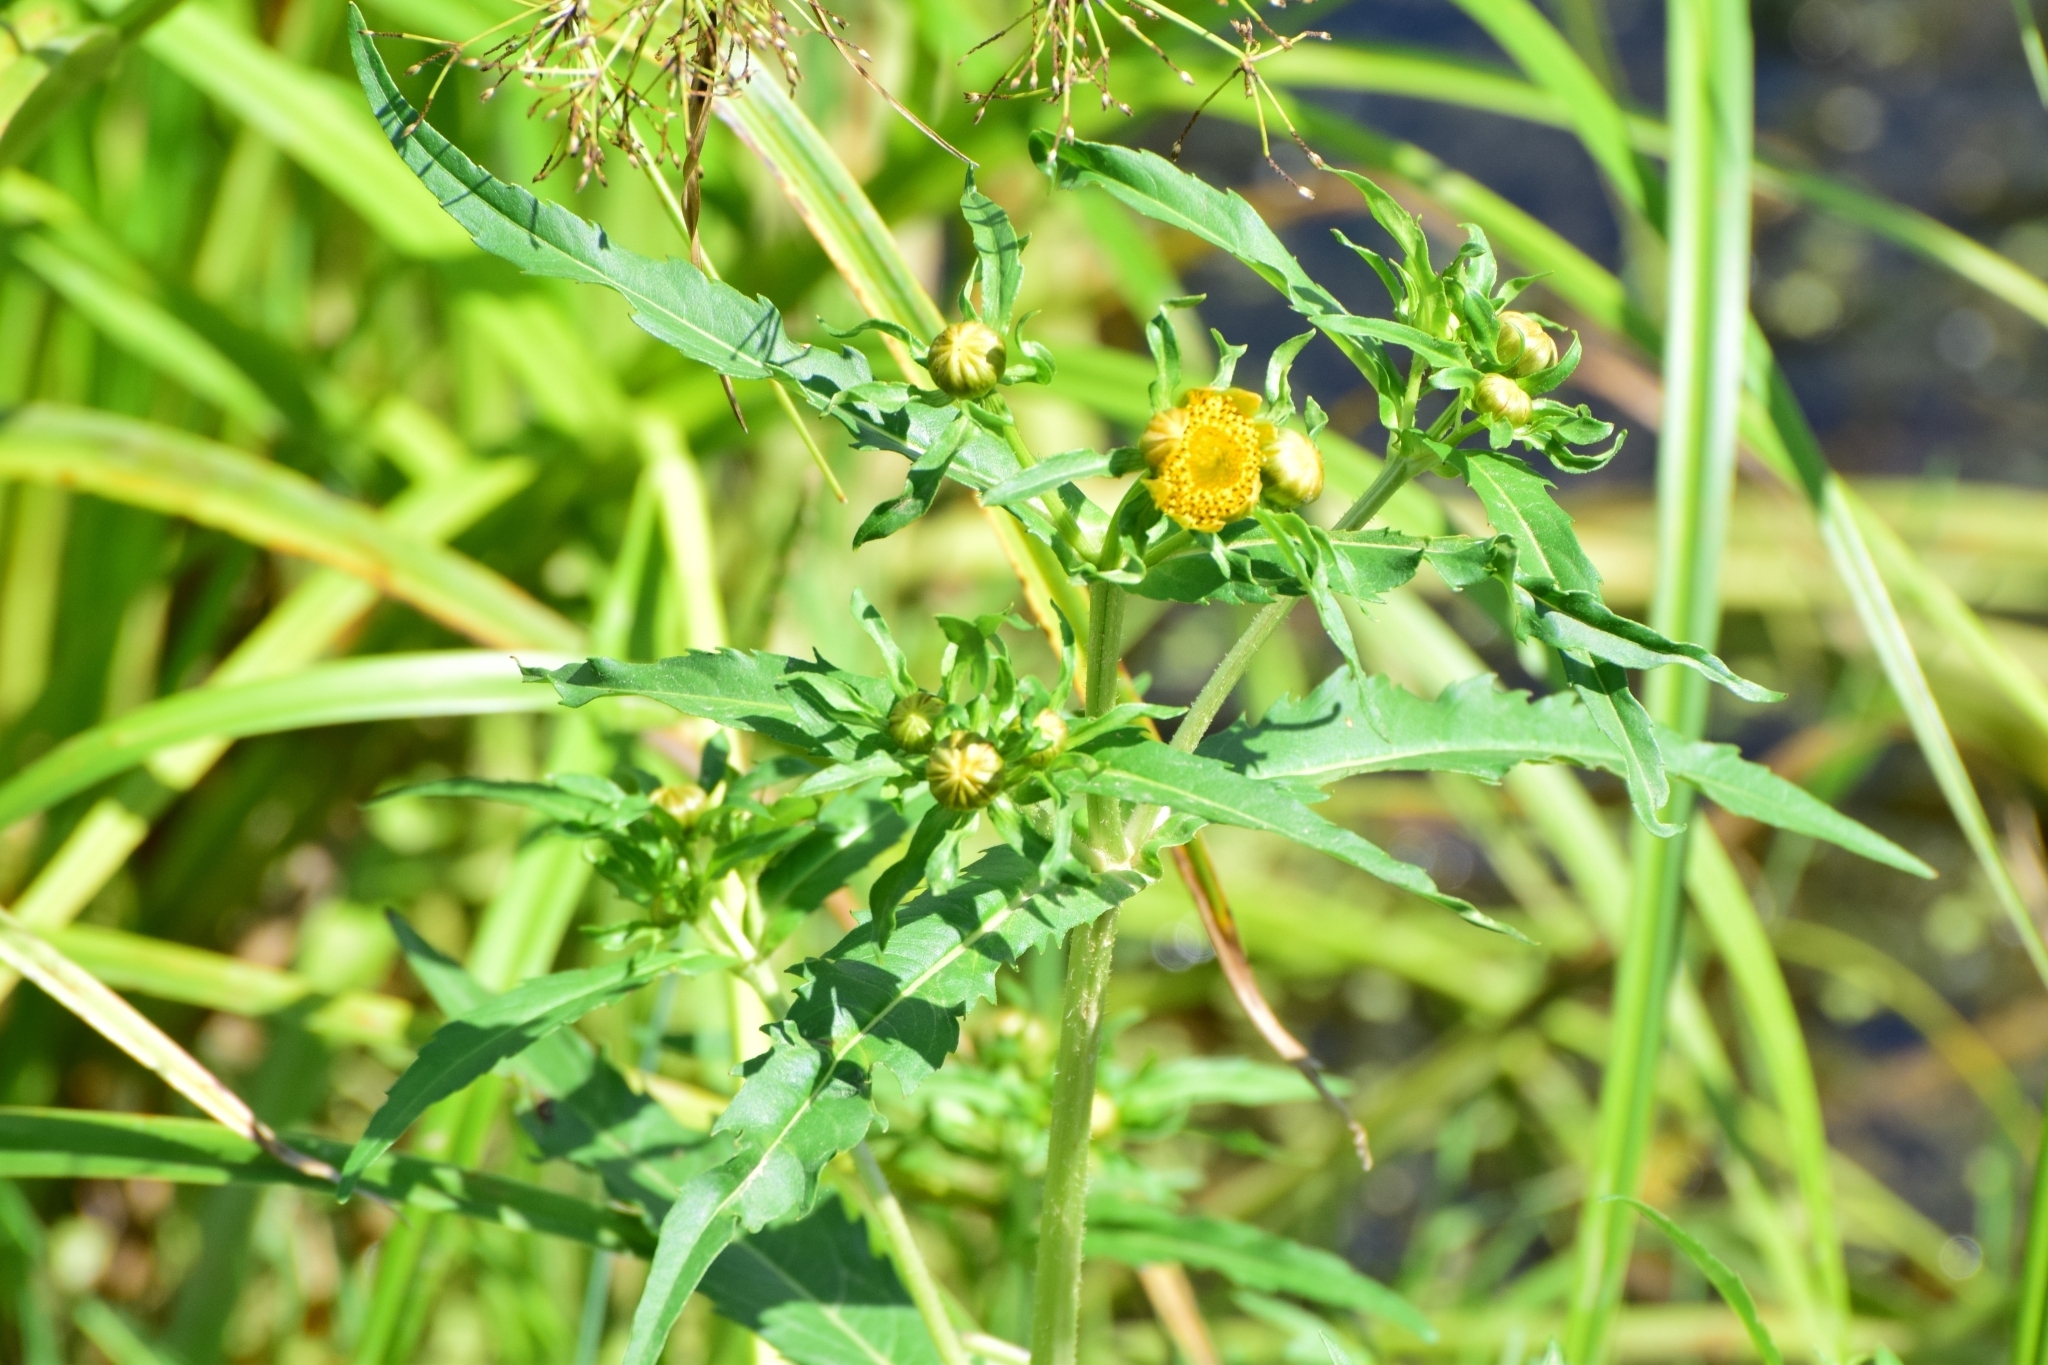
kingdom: Plantae
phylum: Tracheophyta
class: Magnoliopsida
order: Asterales
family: Asteraceae
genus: Bidens
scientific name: Bidens cernua
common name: Nodding bur-marigold
